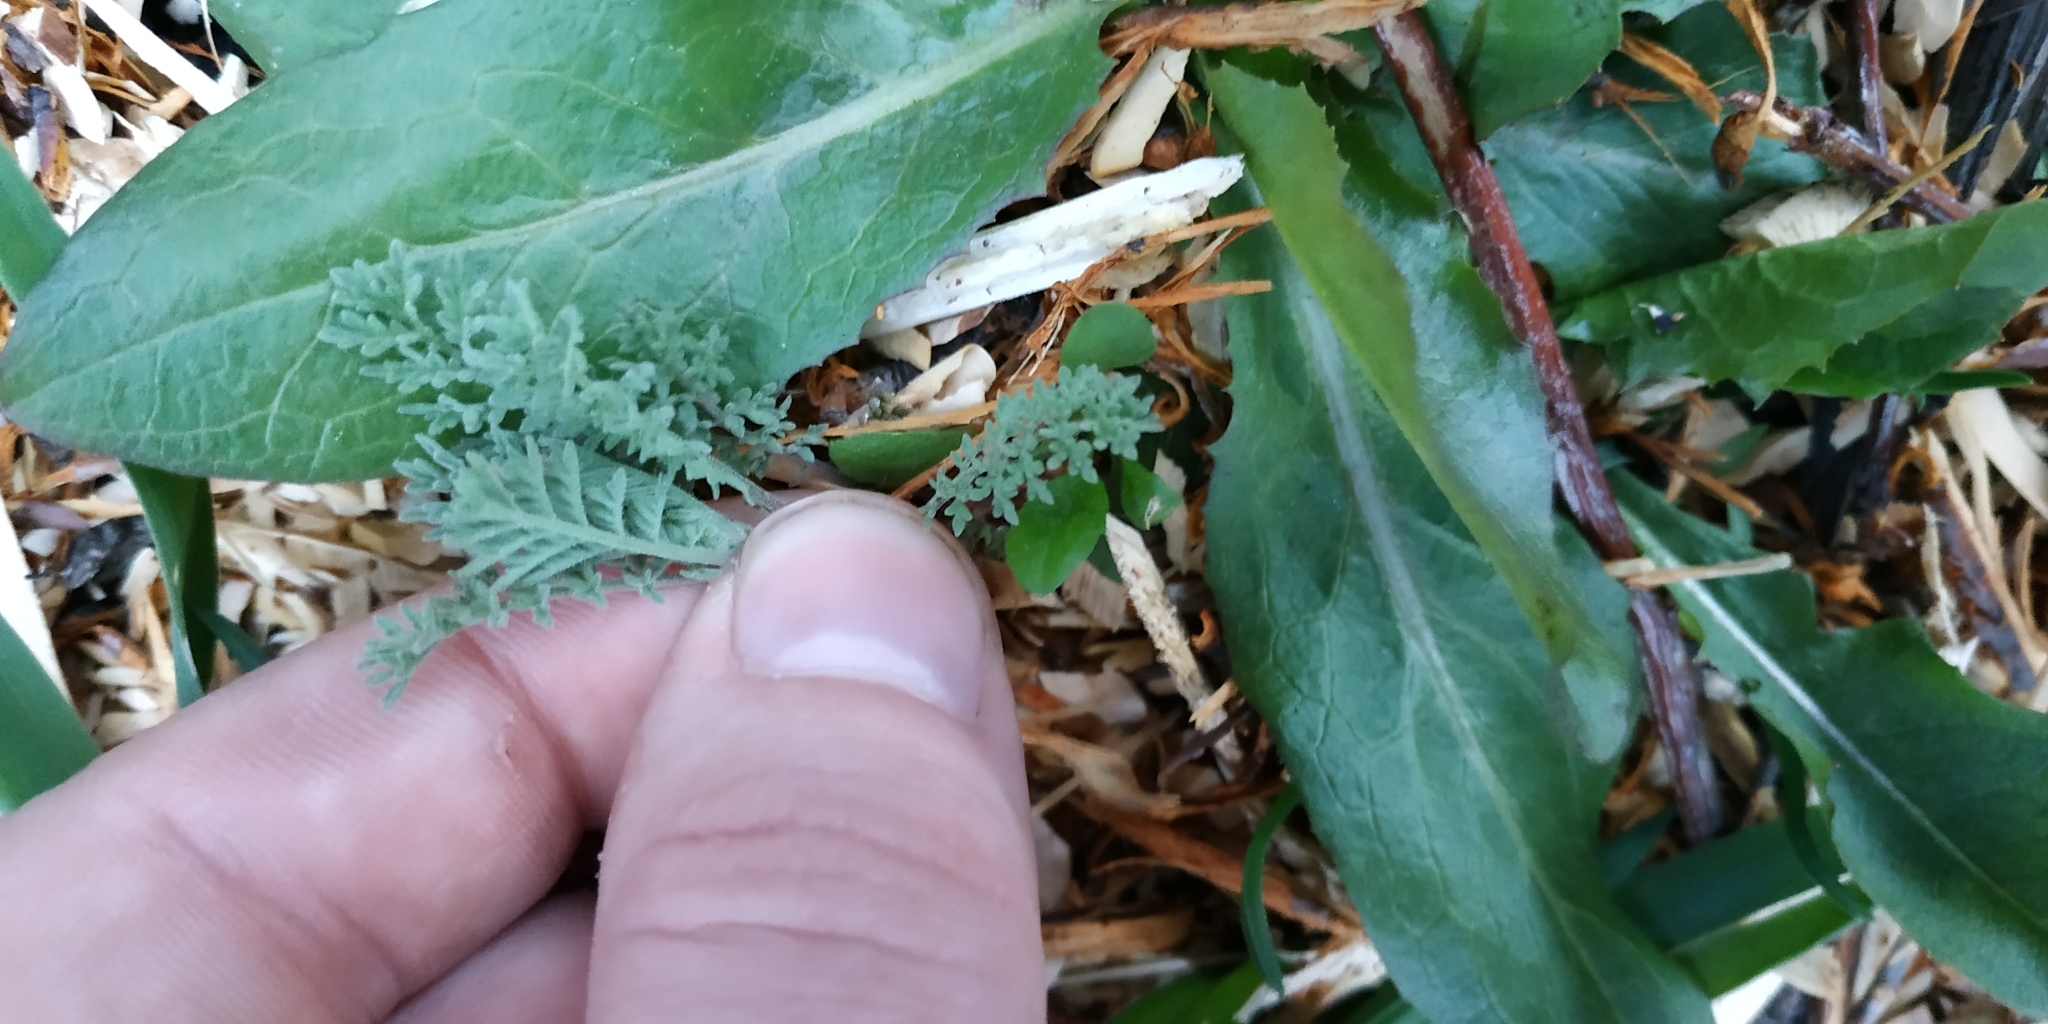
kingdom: Plantae
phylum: Tracheophyta
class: Magnoliopsida
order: Brassicales
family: Brassicaceae
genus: Descurainia
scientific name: Descurainia sophia
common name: Flixweed
